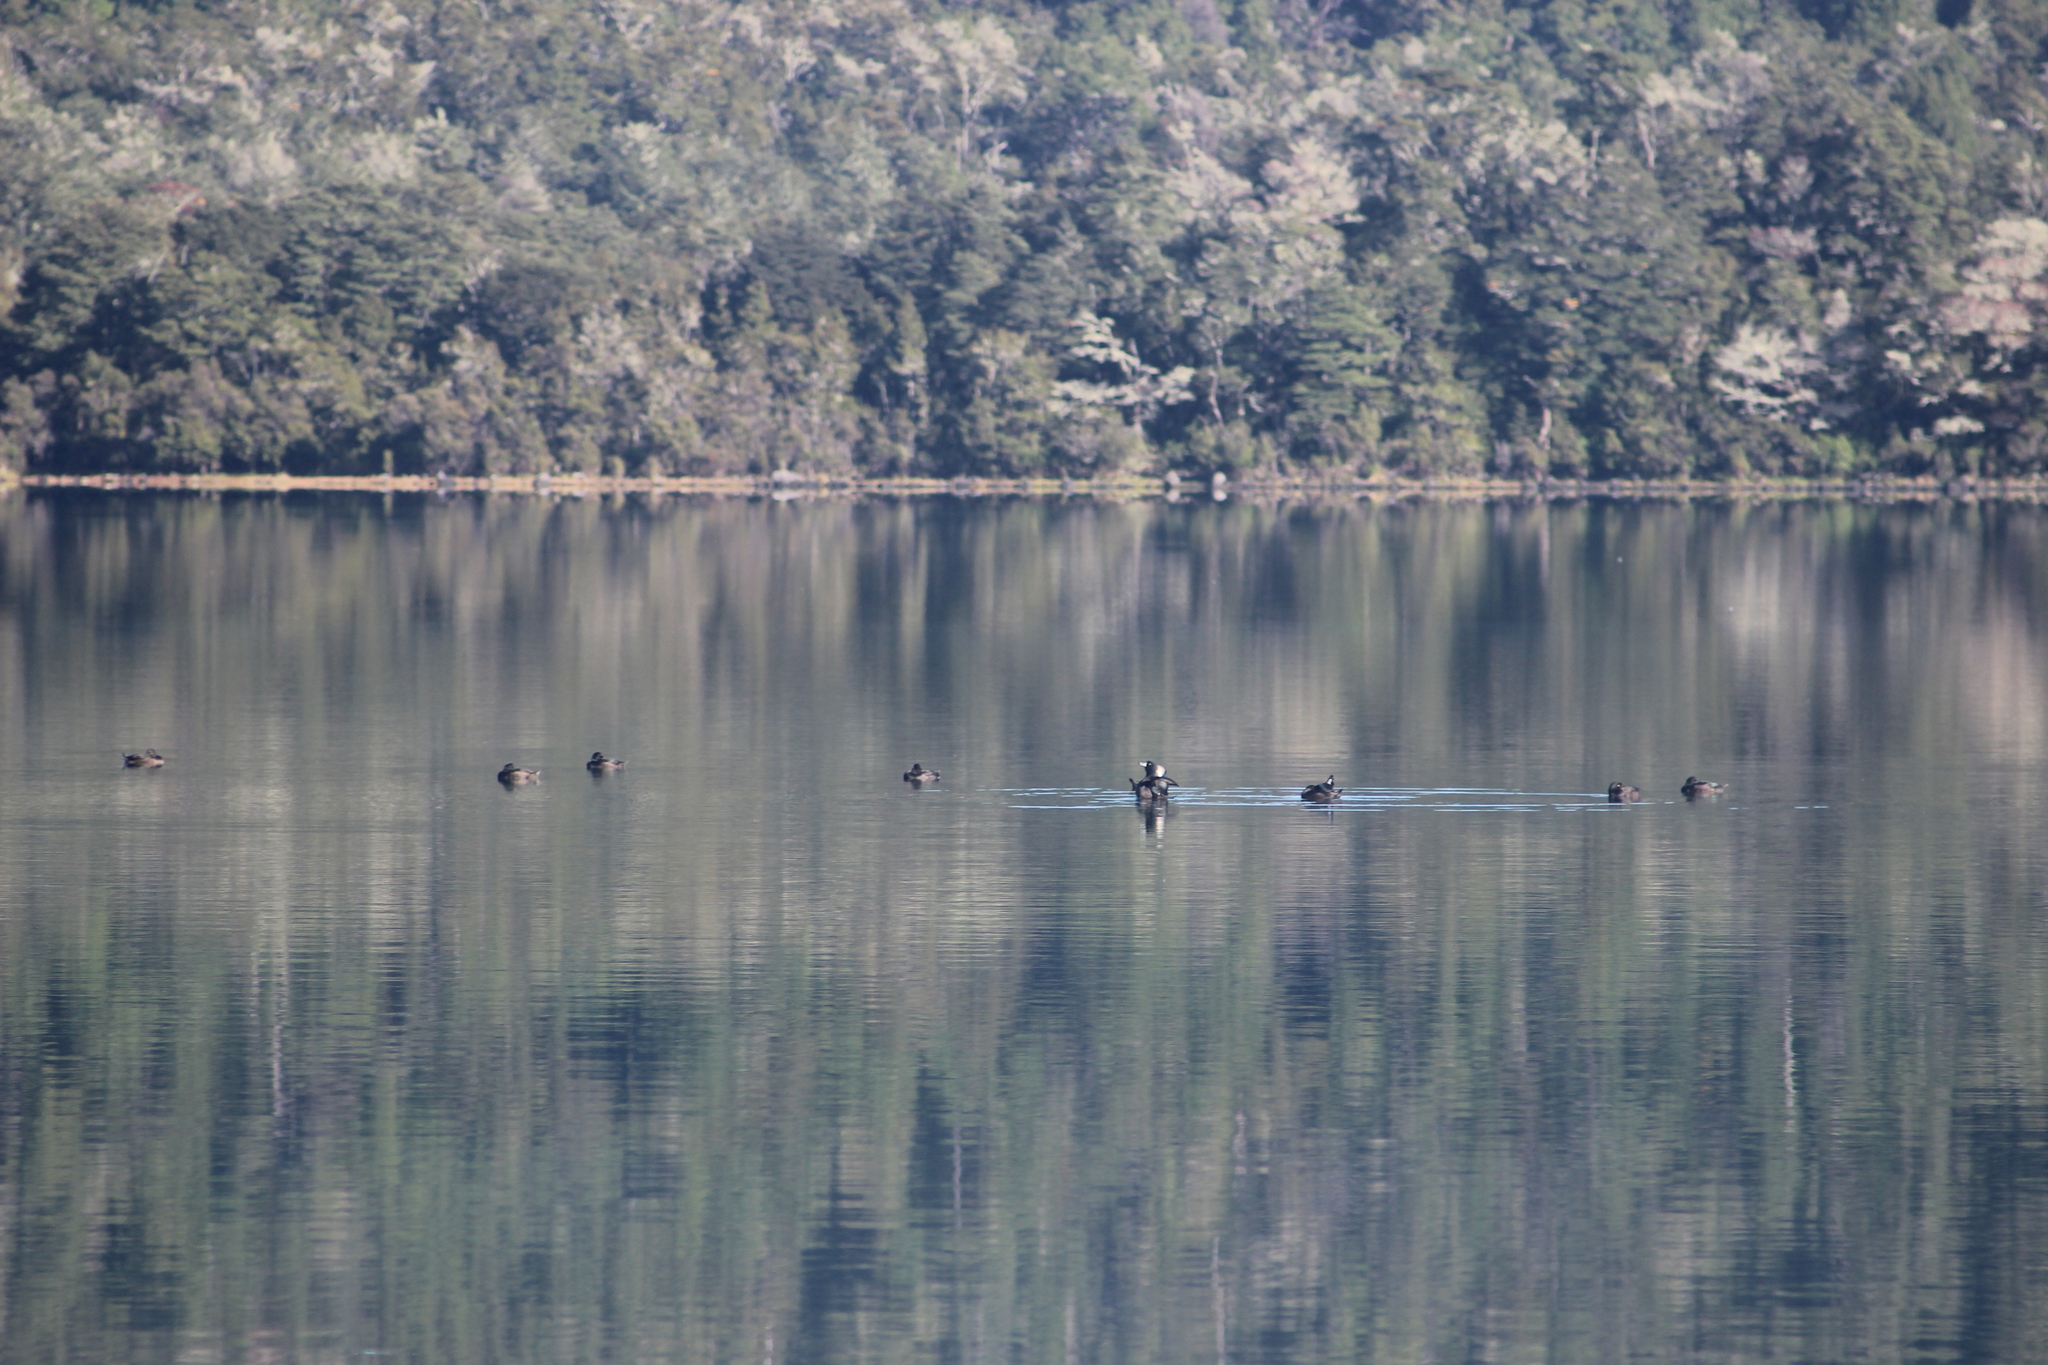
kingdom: Animalia
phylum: Chordata
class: Aves
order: Anseriformes
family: Anatidae
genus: Aythya
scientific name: Aythya novaeseelandiae
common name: New zealand scaup
